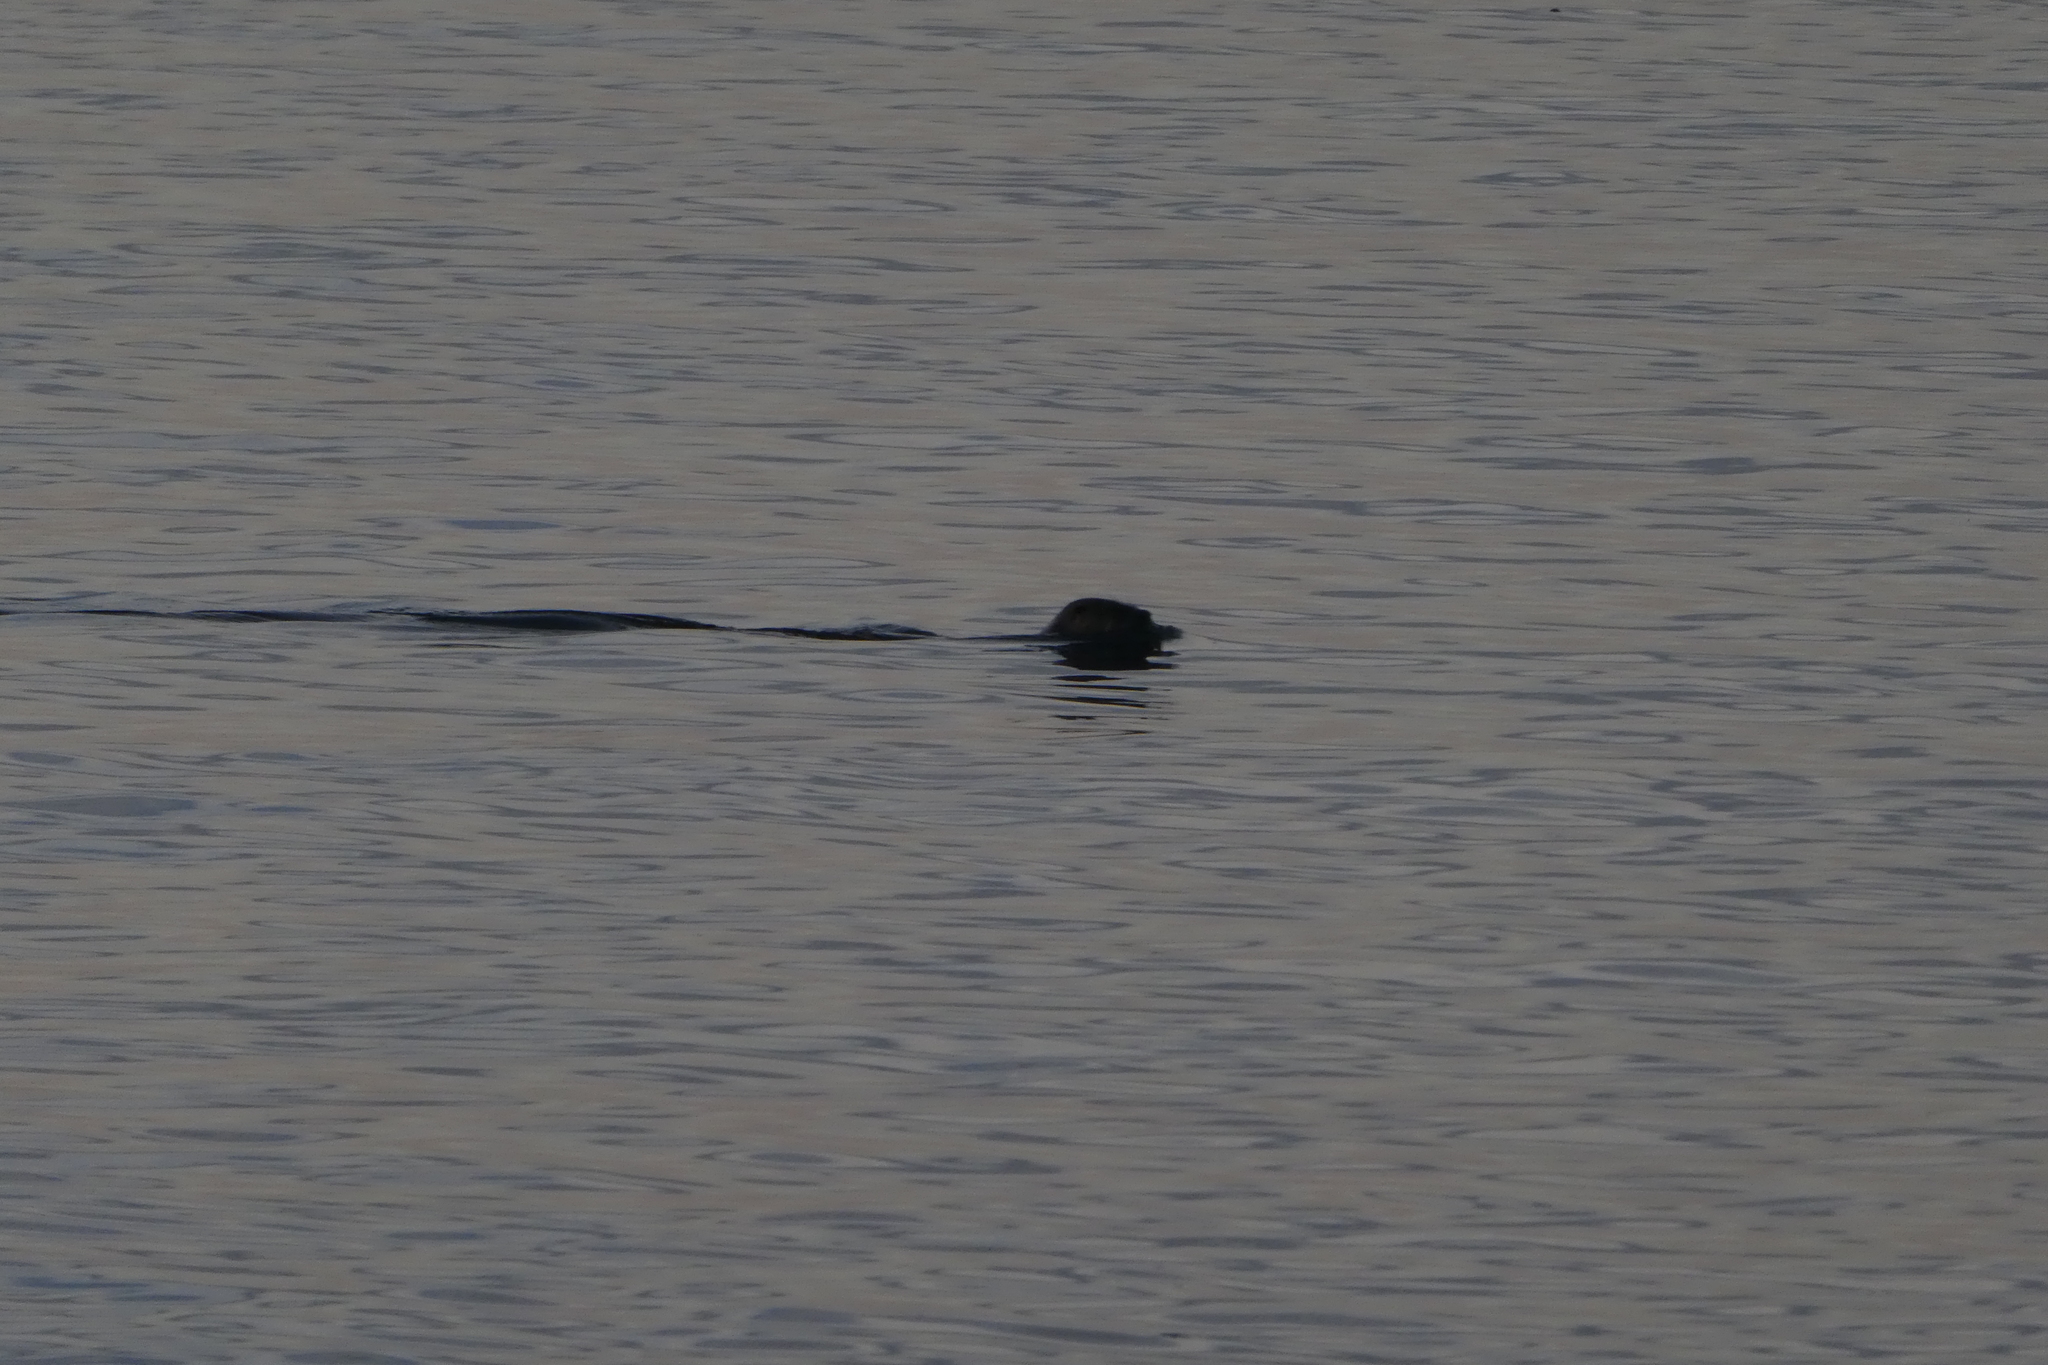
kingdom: Animalia
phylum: Chordata
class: Mammalia
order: Carnivora
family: Mustelidae
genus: Lontra
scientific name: Lontra canadensis
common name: North american river otter
